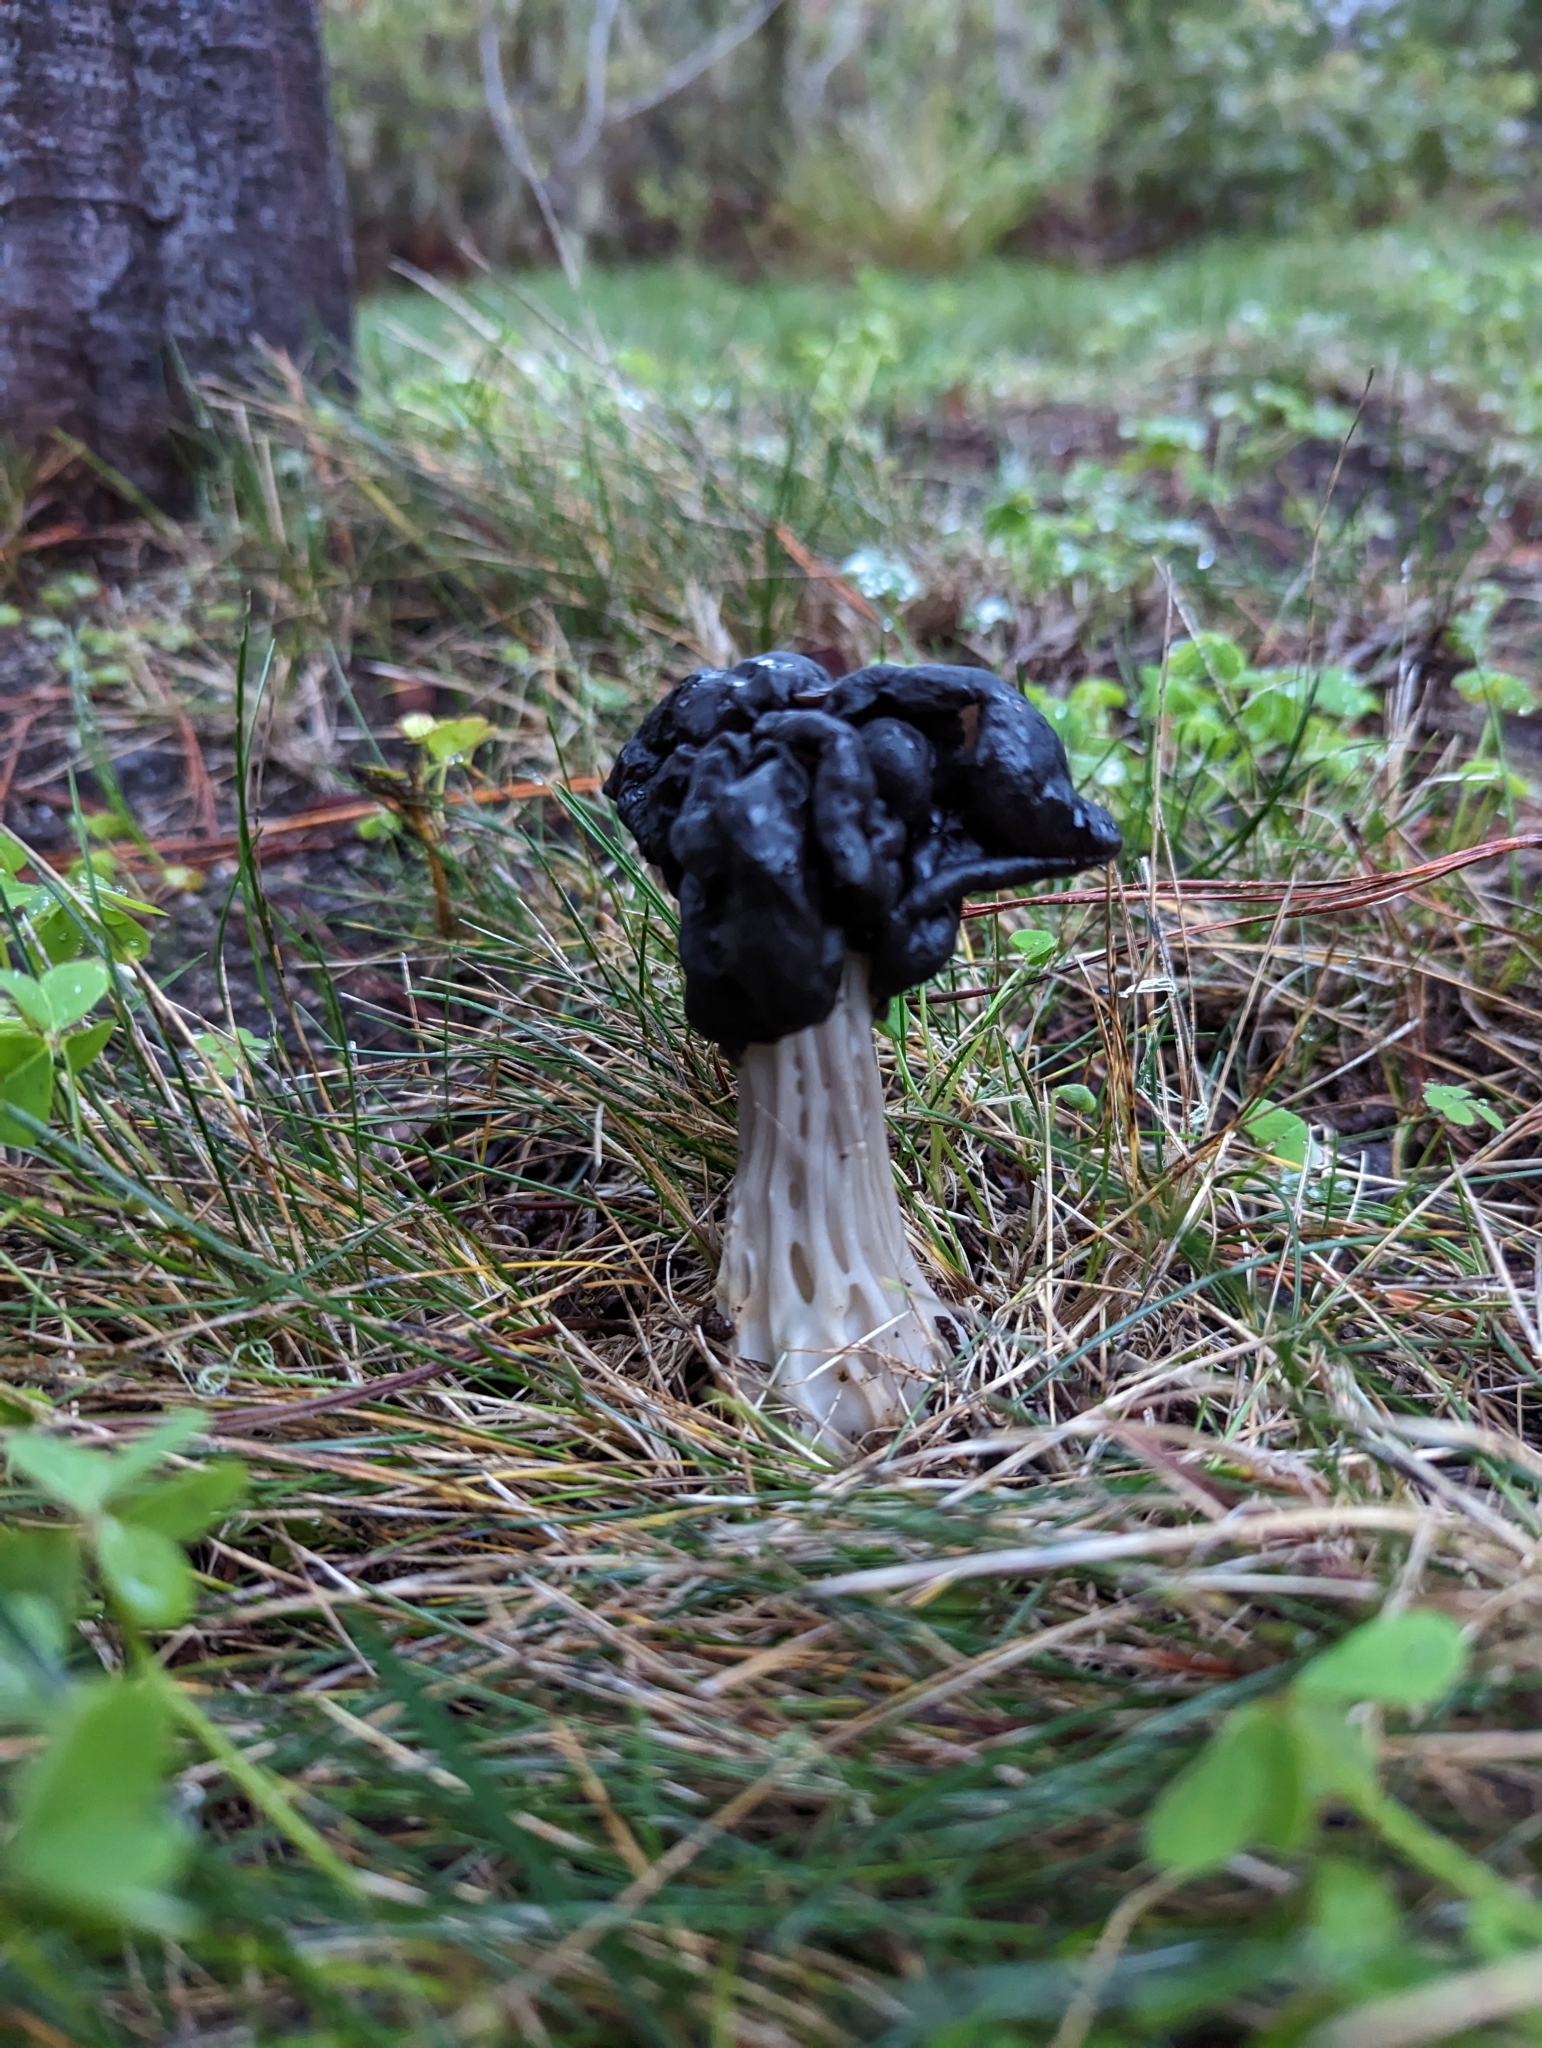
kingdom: Fungi
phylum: Ascomycota
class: Pezizomycetes
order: Pezizales
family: Helvellaceae
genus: Helvella
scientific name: Helvella vespertina
